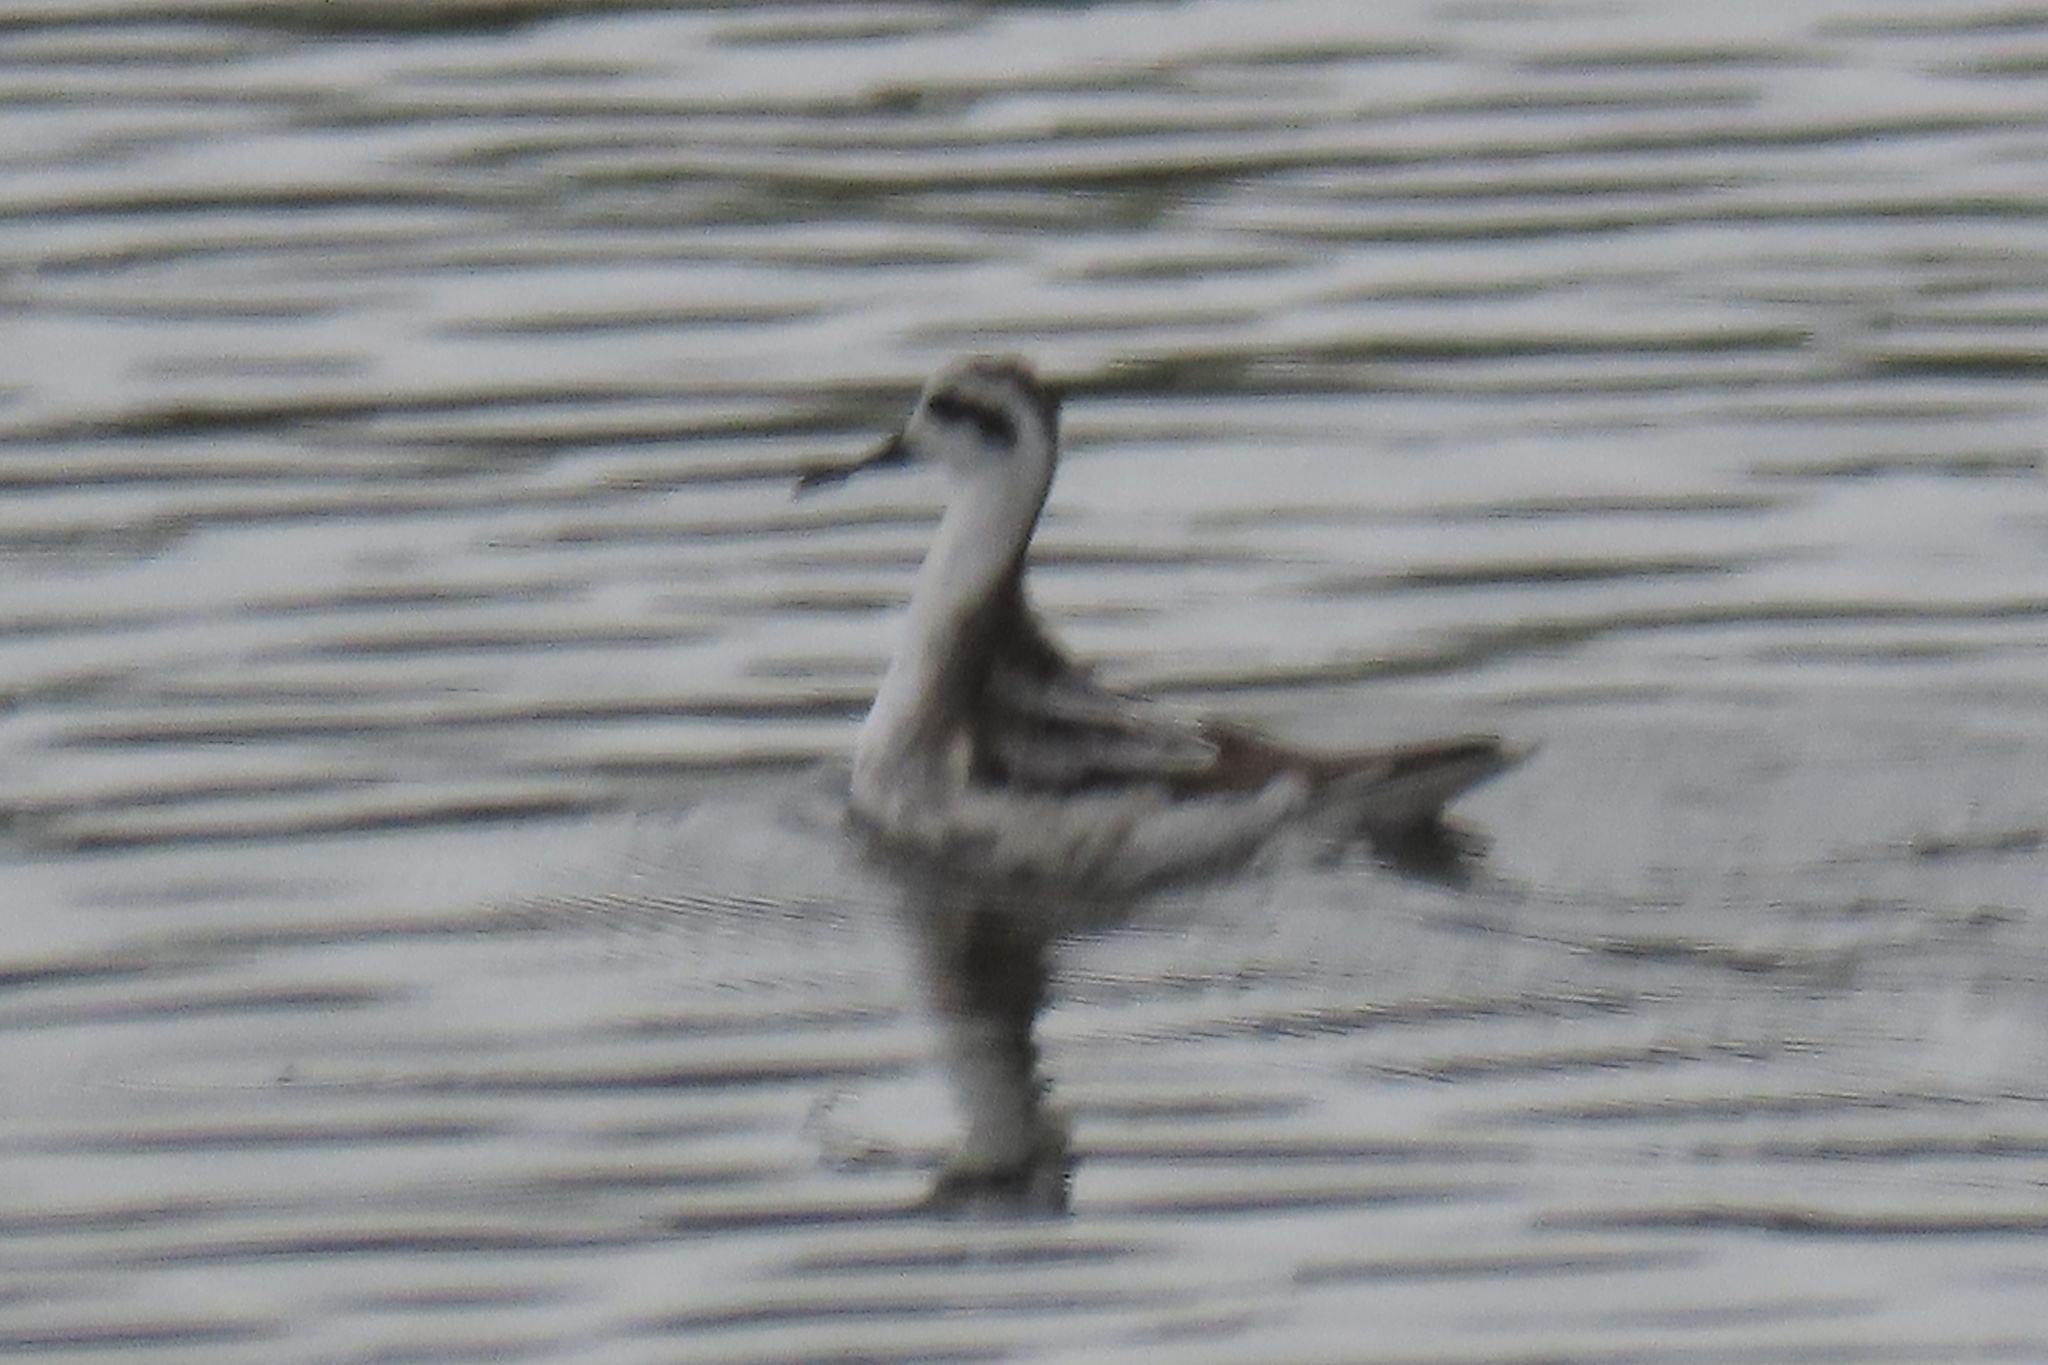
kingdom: Animalia
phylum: Chordata
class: Aves
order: Charadriiformes
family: Scolopacidae
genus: Phalaropus
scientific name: Phalaropus lobatus
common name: Red-necked phalarope
